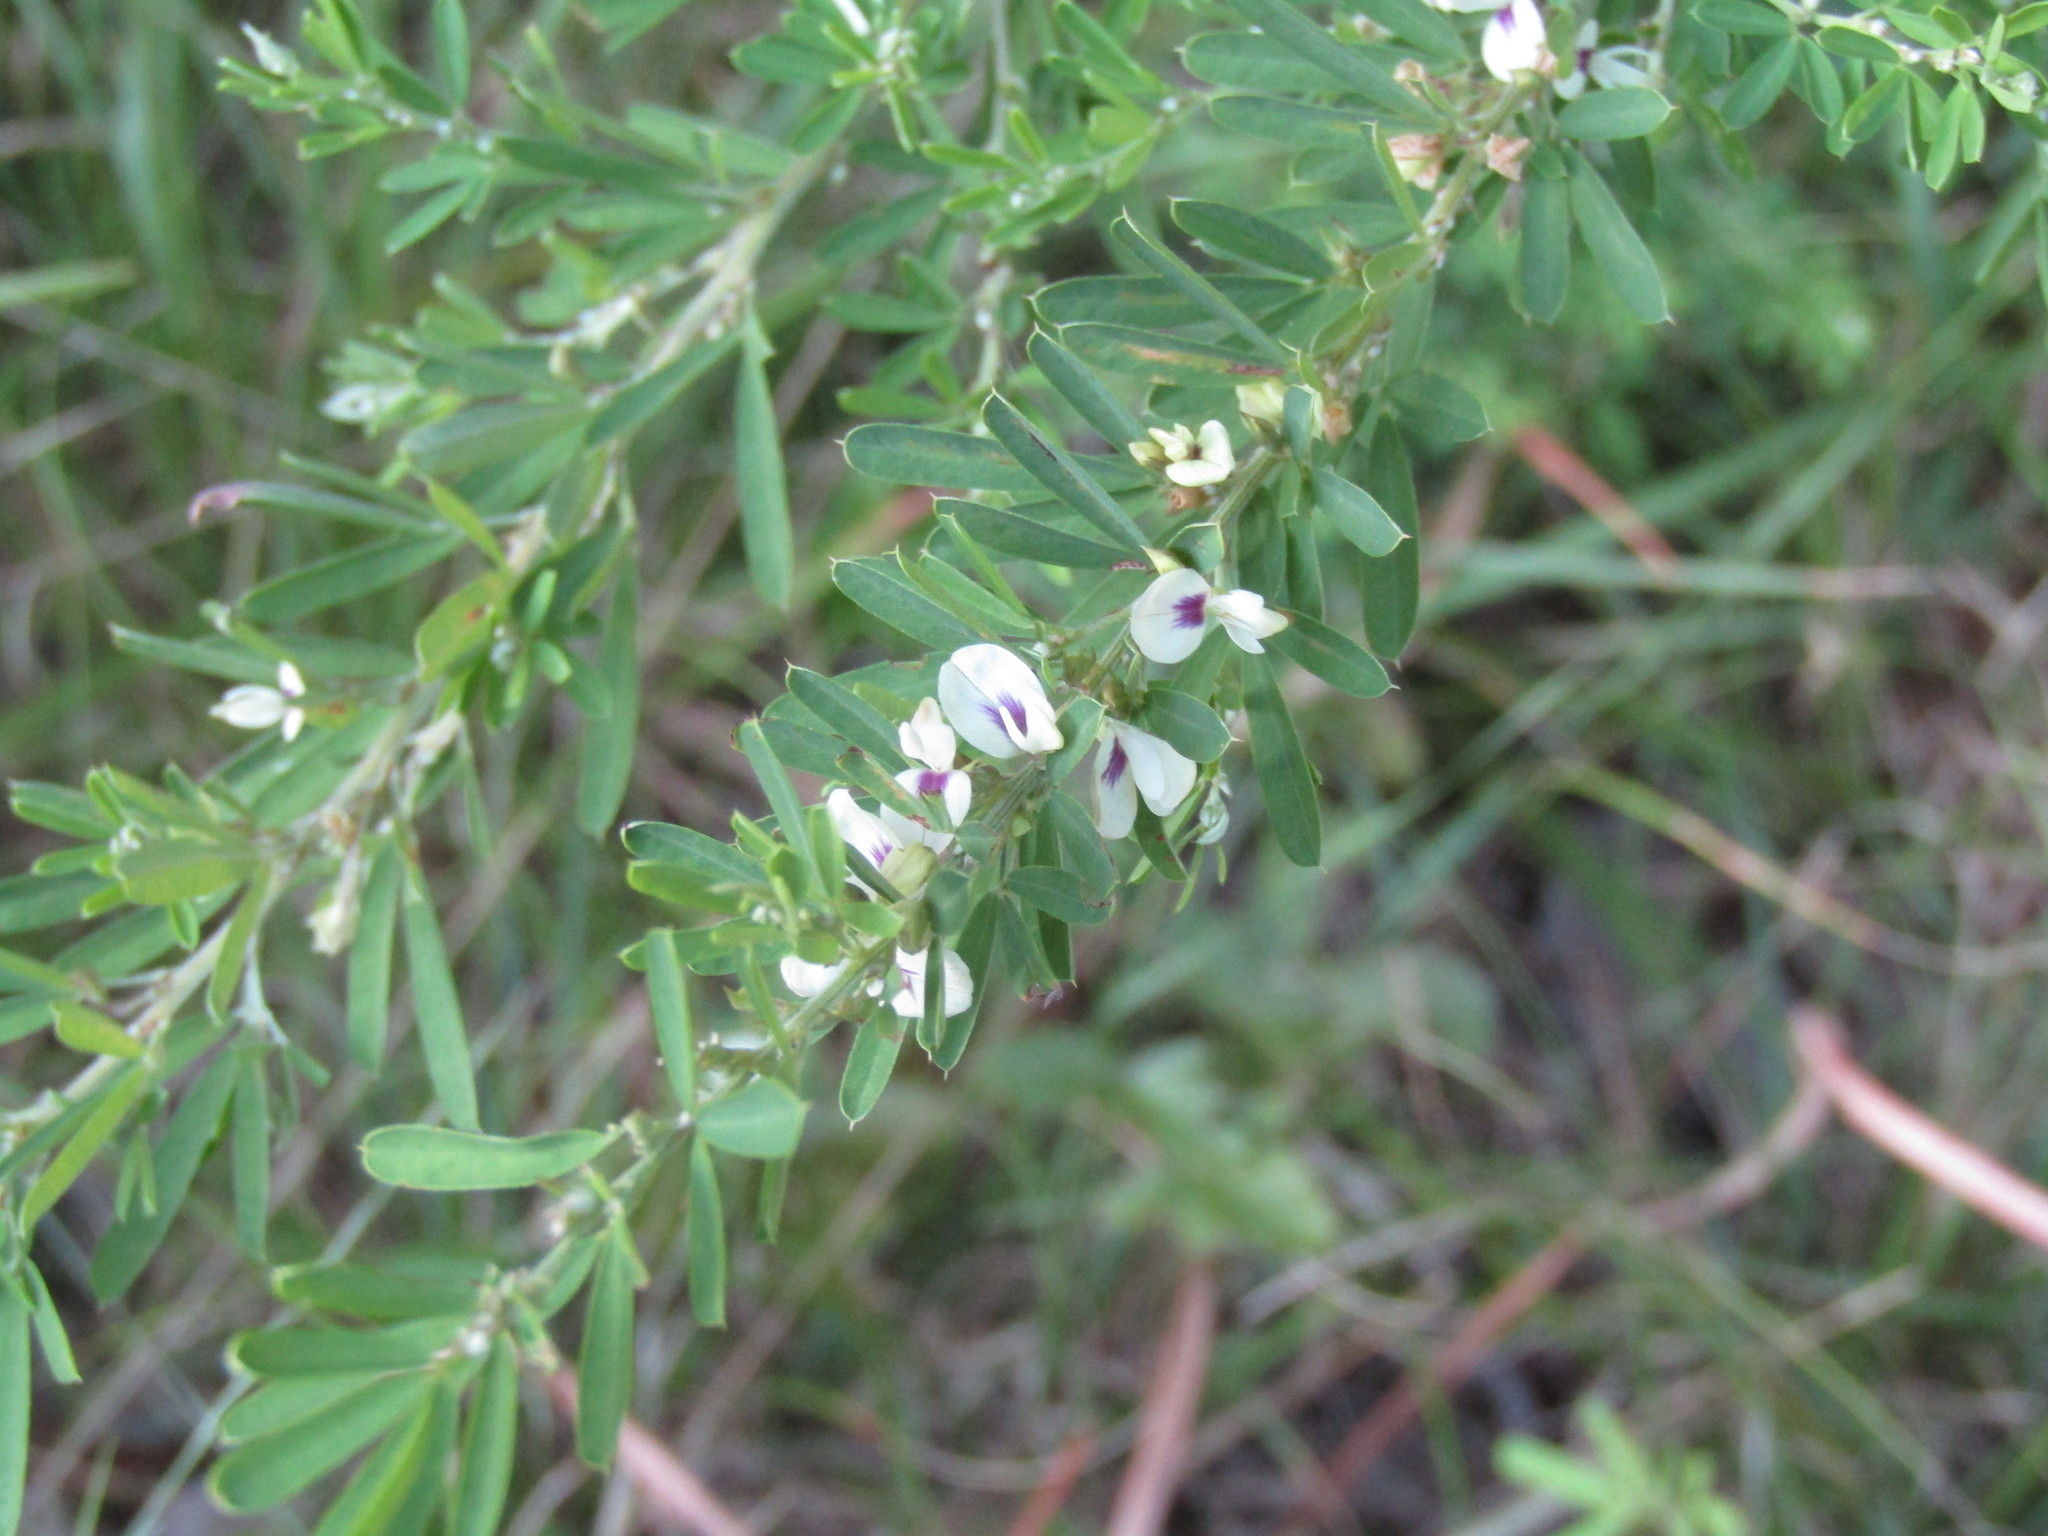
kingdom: Plantae
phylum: Tracheophyta
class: Magnoliopsida
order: Fabales
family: Fabaceae
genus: Lespedeza
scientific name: Lespedeza cuneata
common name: Chinese bush-clover
